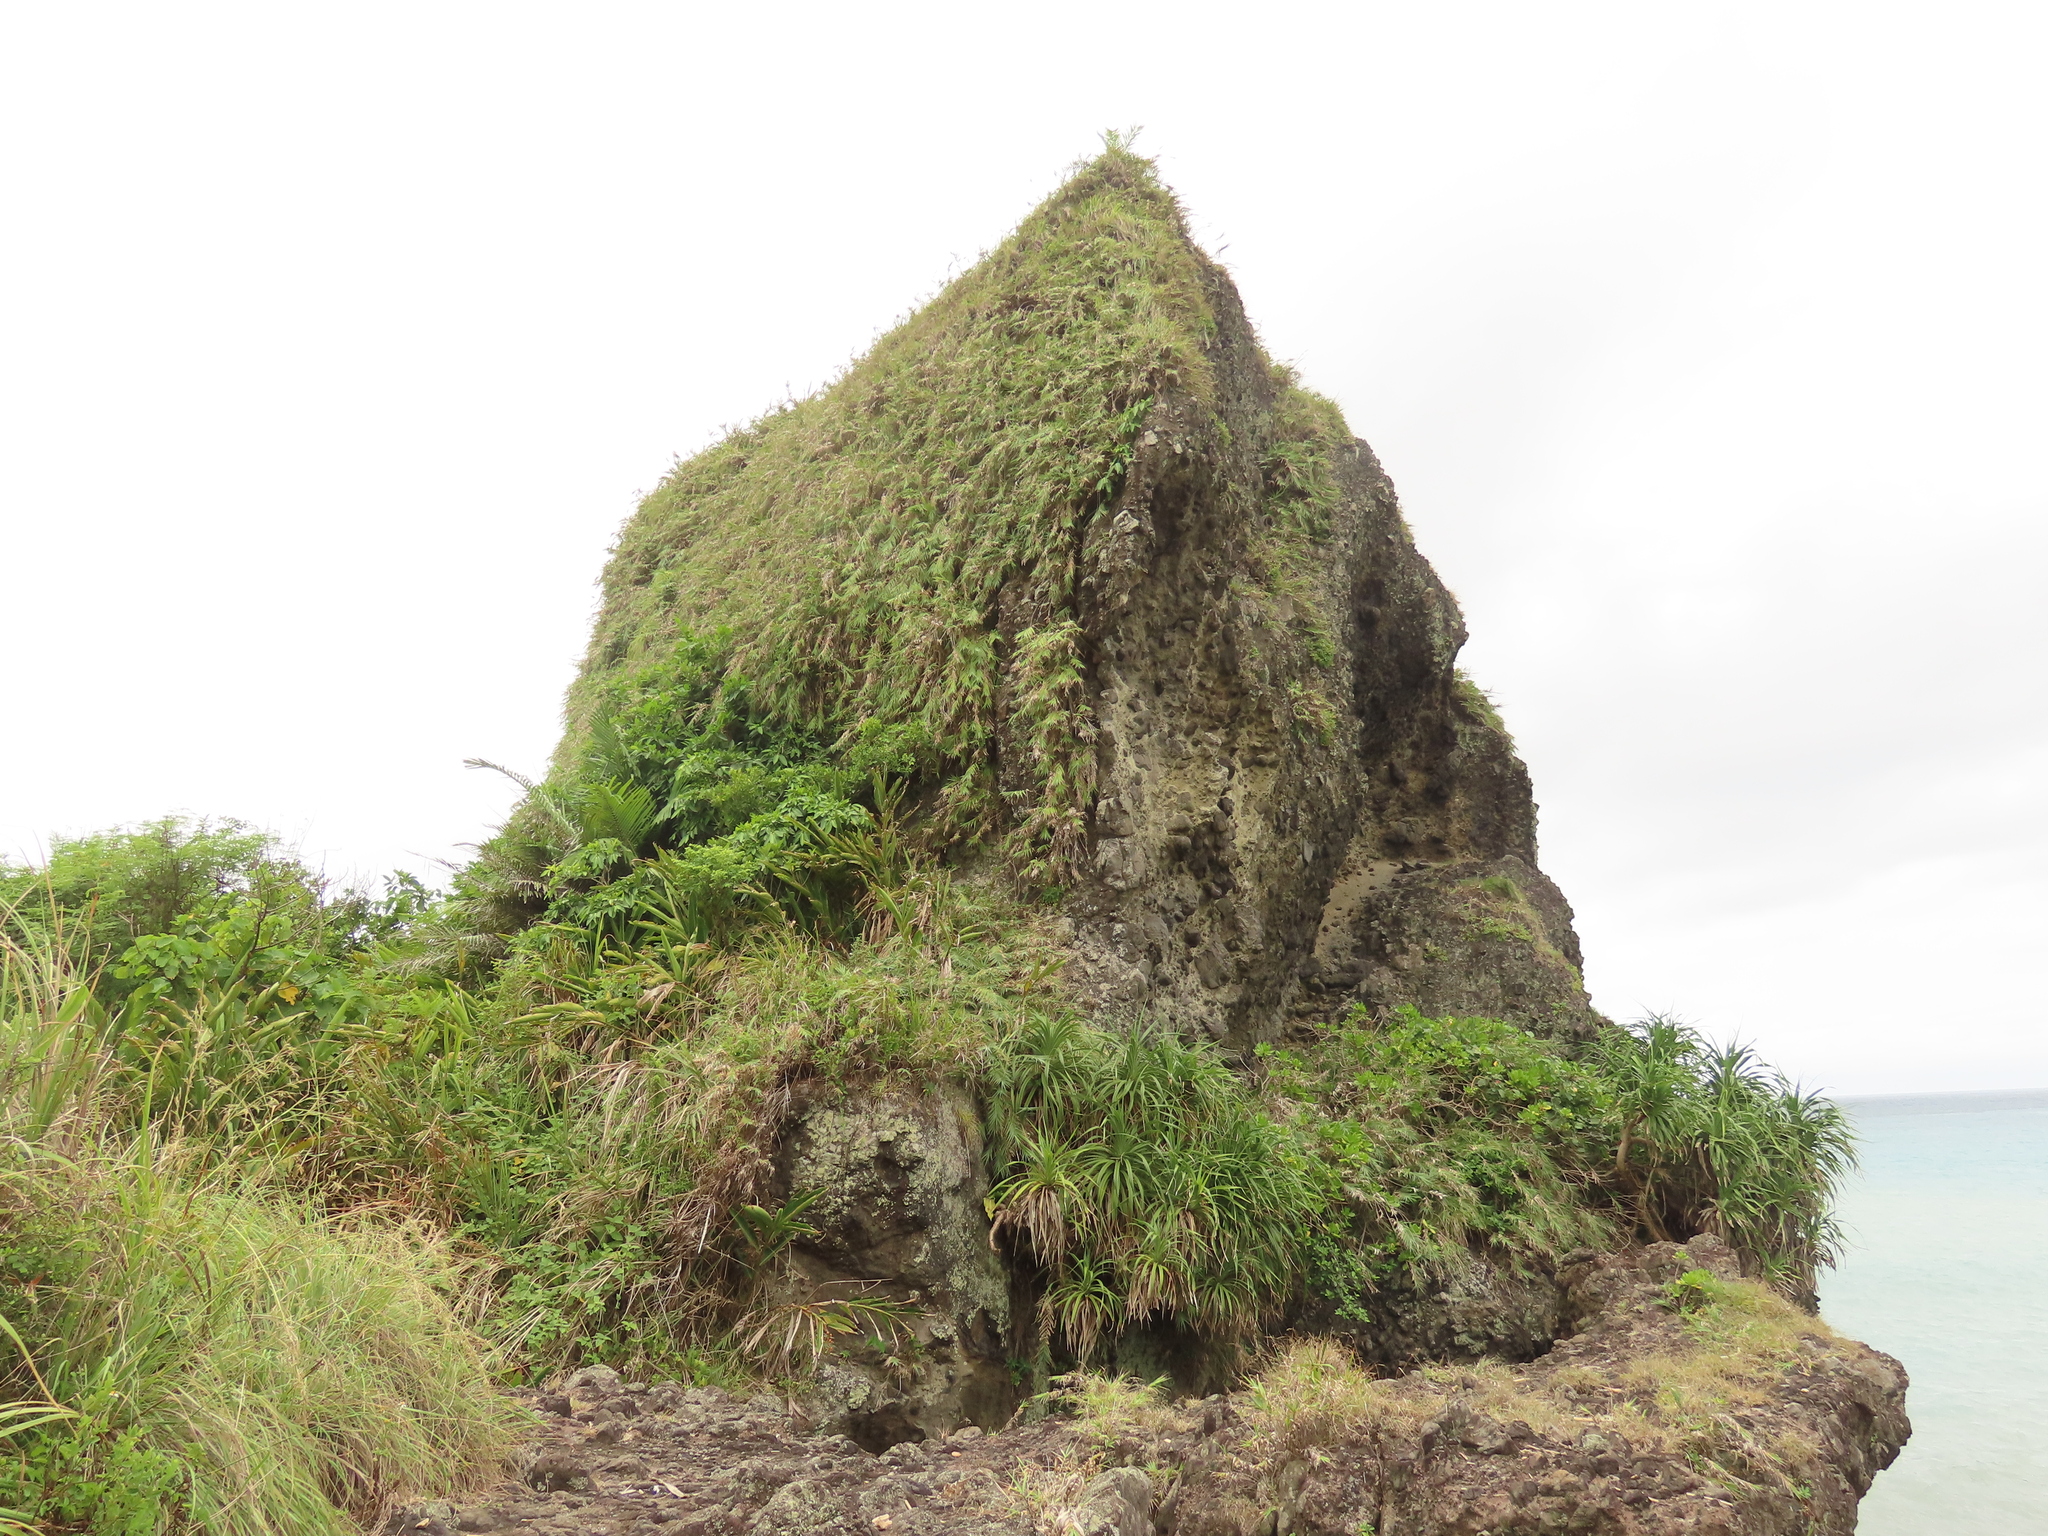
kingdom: Plantae
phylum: Tracheophyta
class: Liliopsida
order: Pandanales
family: Pandanaceae
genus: Pandanus
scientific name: Pandanus odorifer
